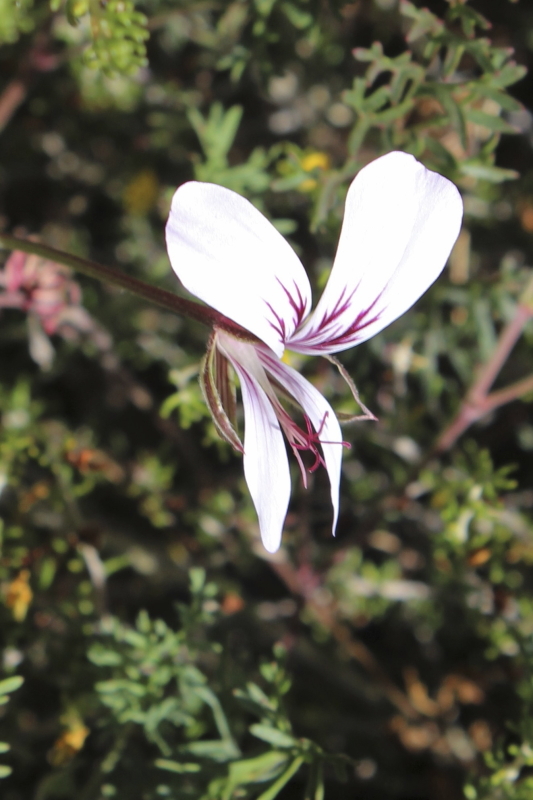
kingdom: Plantae
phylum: Tracheophyta
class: Magnoliopsida
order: Geraniales
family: Geraniaceae
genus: Pelargonium
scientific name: Pelargonium myrrhifolium
